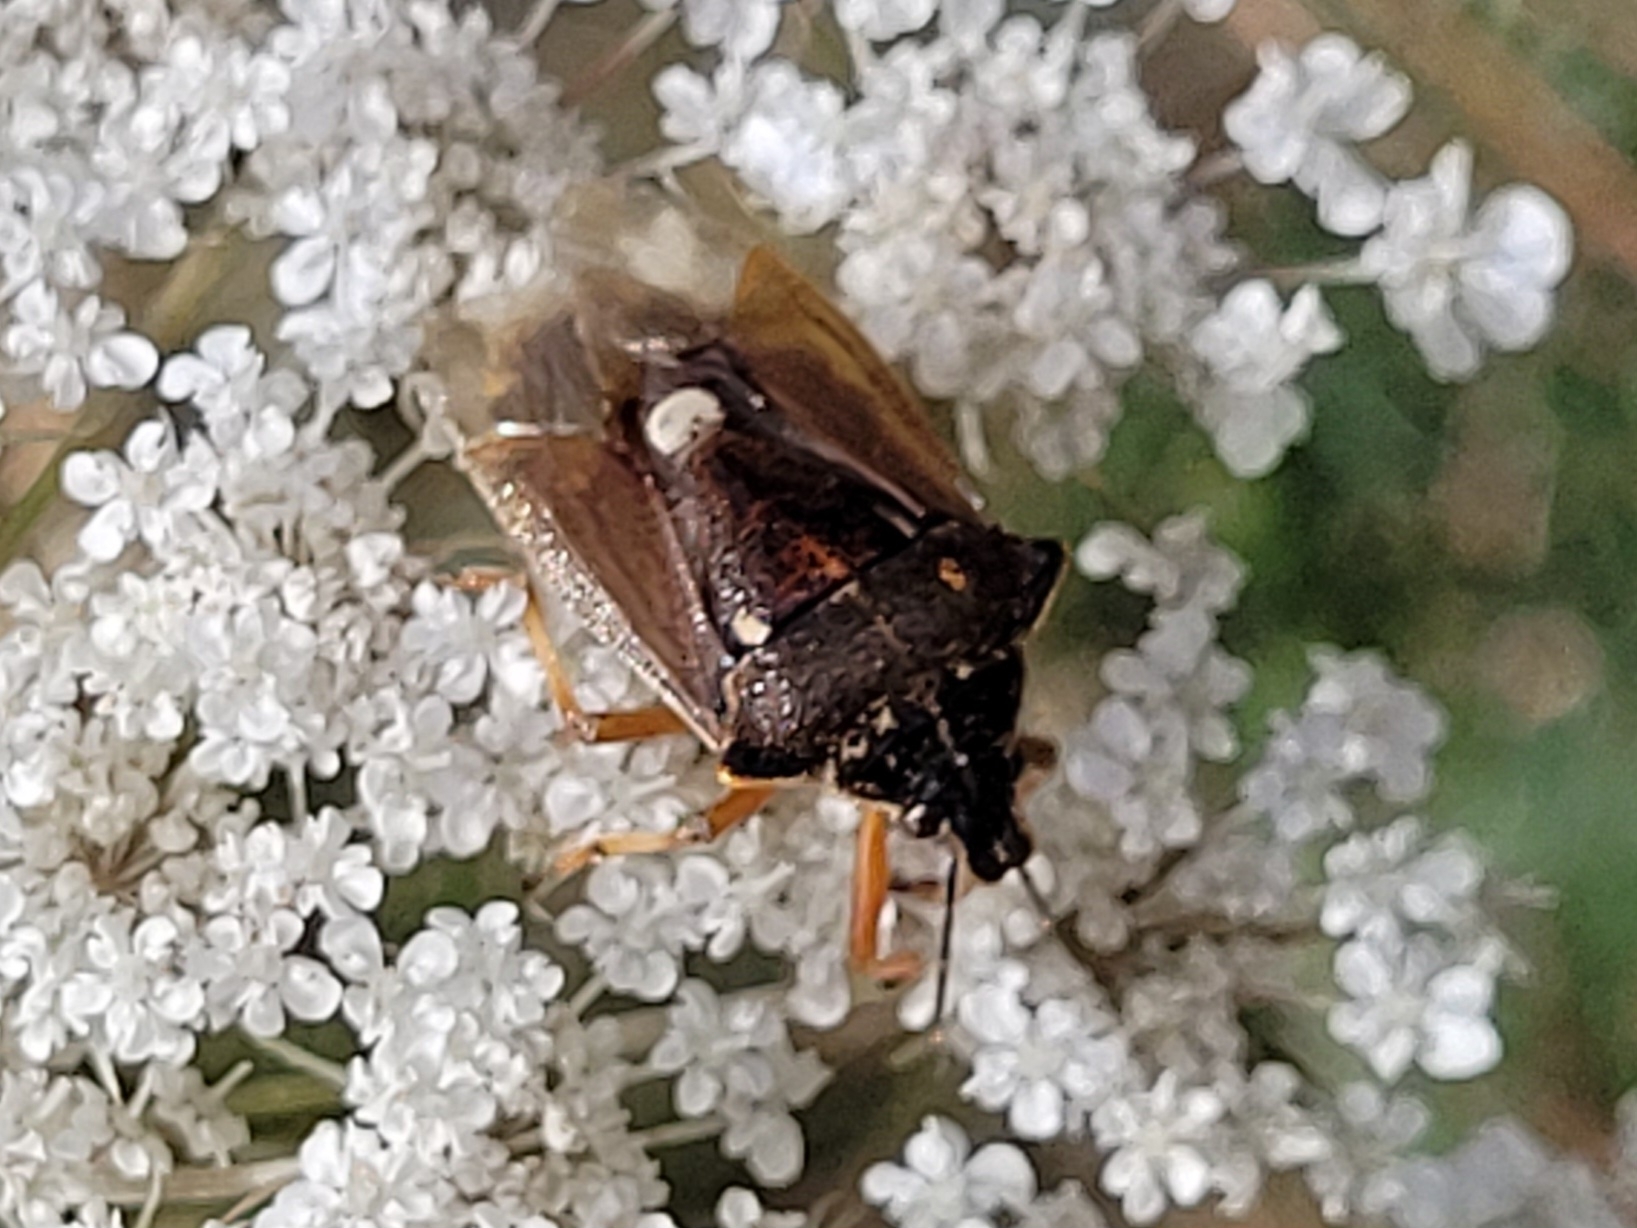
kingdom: Animalia
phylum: Arthropoda
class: Insecta
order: Hemiptera
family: Pentatomidae
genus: Pinthaeus
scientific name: Pinthaeus sanguinipes
